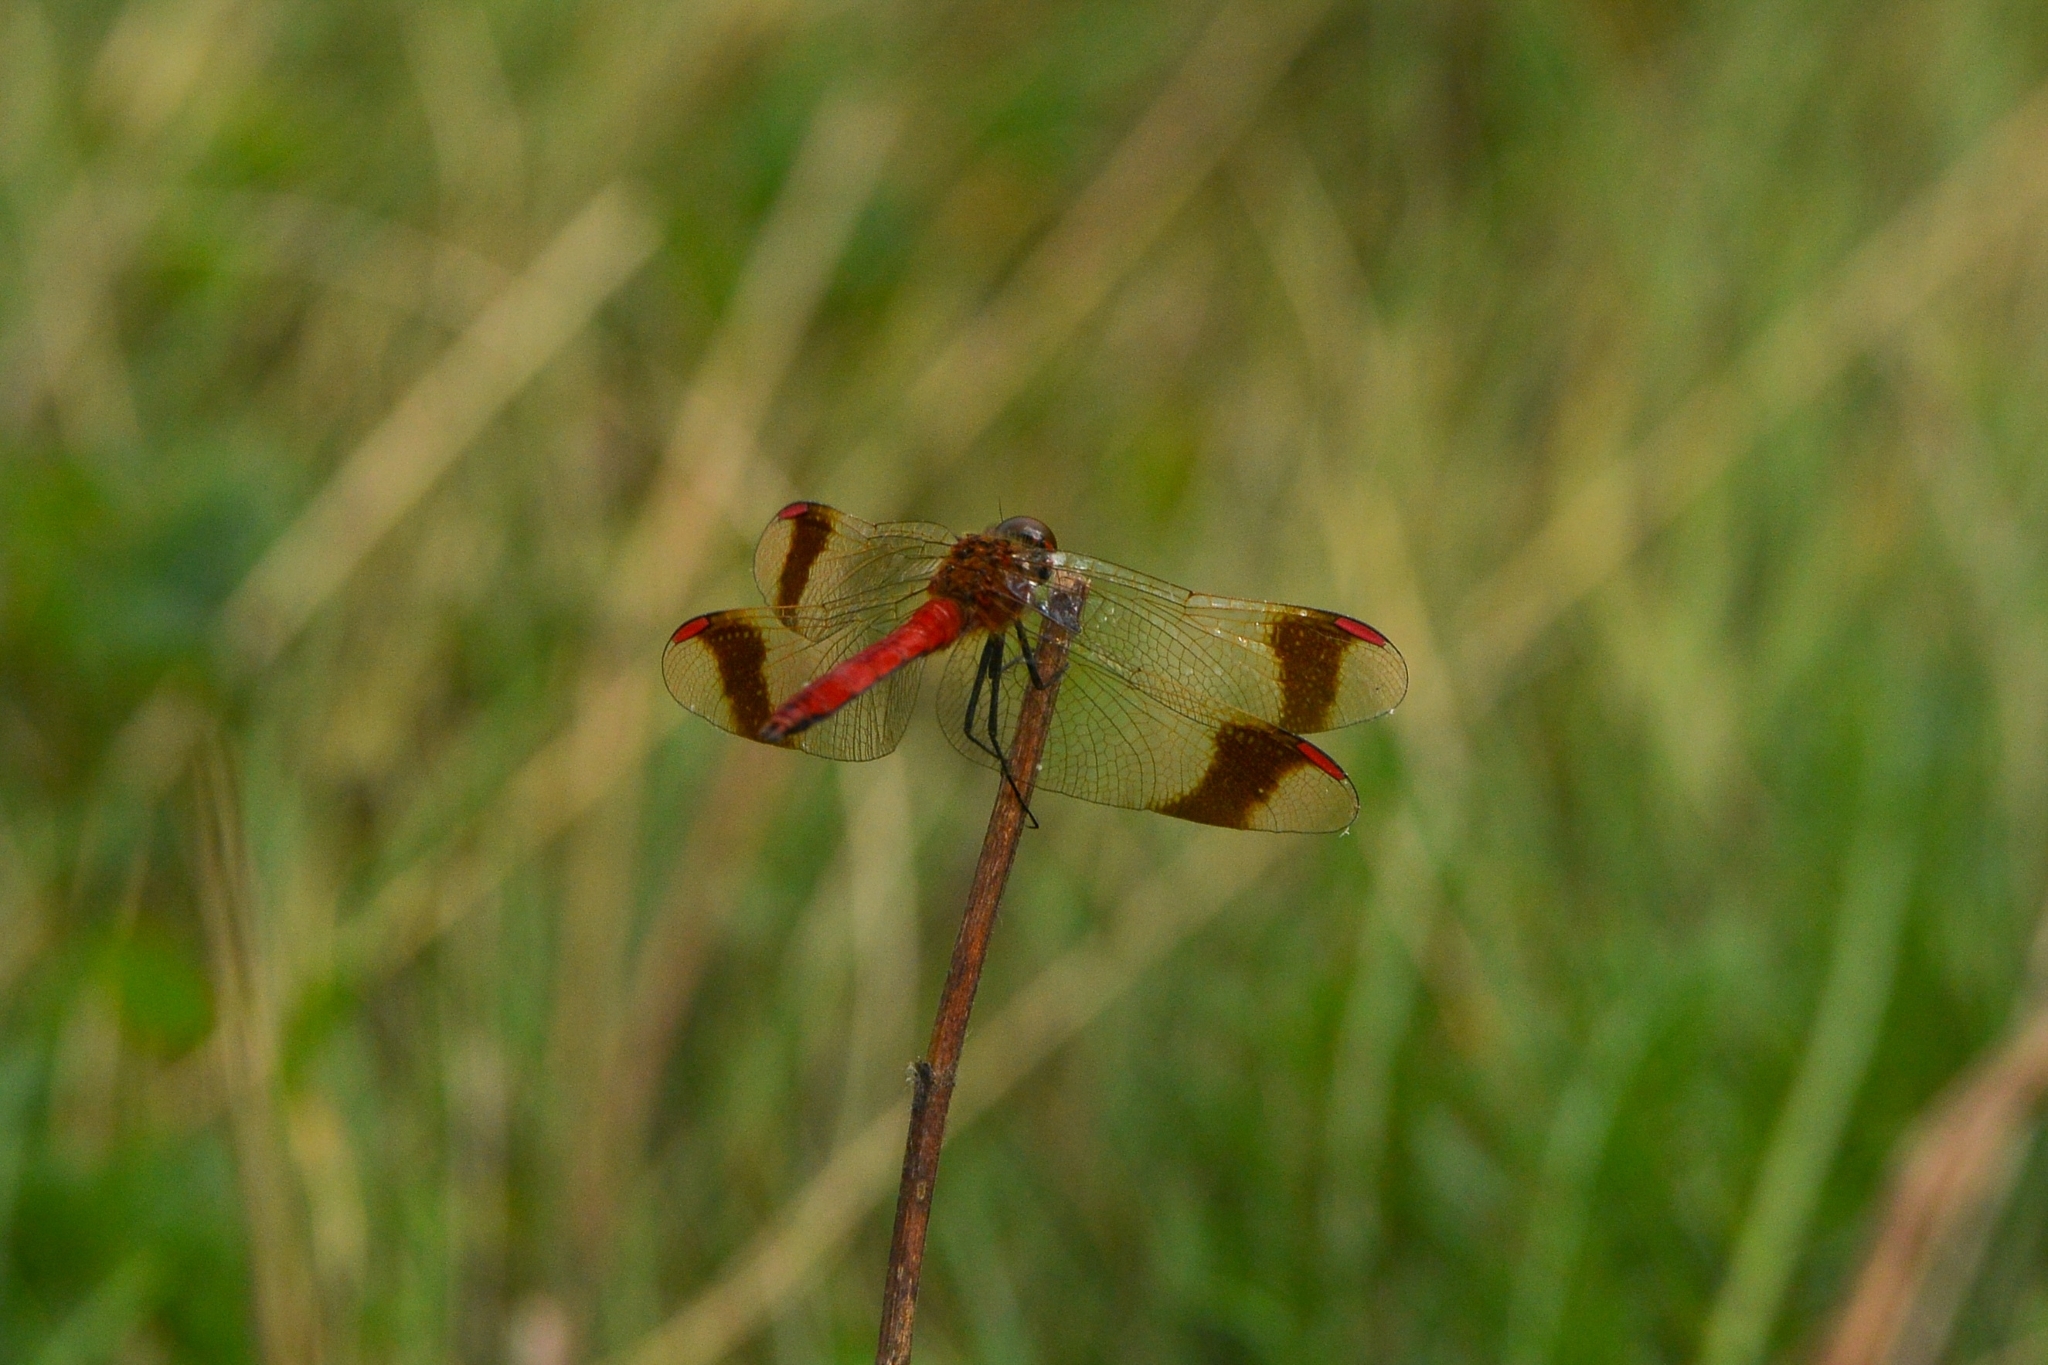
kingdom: Animalia
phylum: Arthropoda
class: Insecta
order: Odonata
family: Libellulidae
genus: Sympetrum
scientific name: Sympetrum pedemontanum
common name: Banded darter
